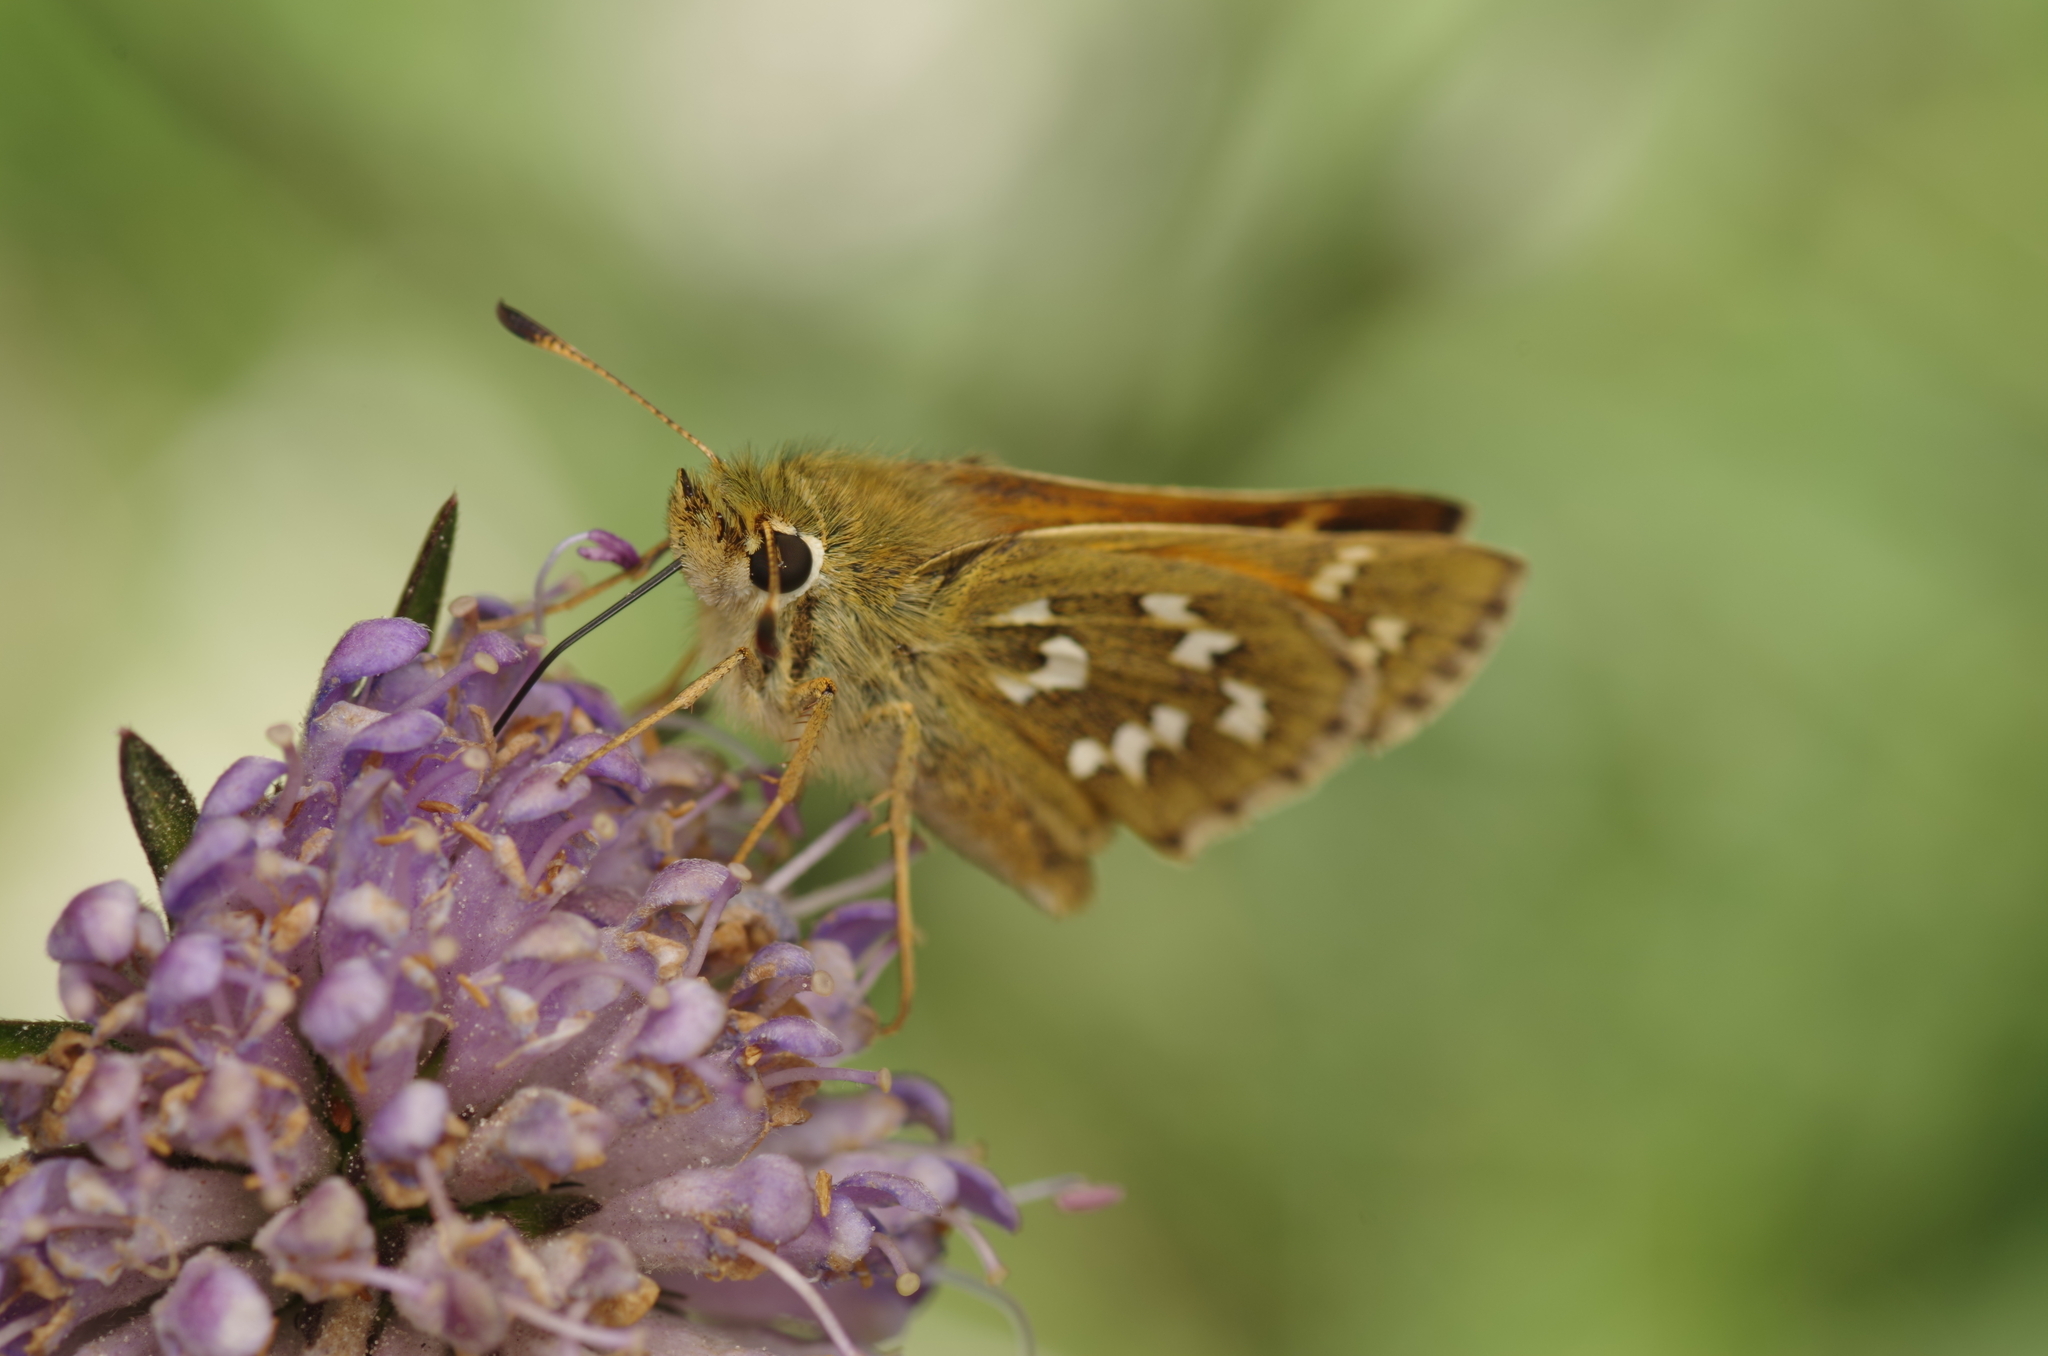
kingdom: Animalia
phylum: Arthropoda
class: Insecta
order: Lepidoptera
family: Hesperiidae
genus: Hesperia
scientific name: Hesperia comma
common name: Common branded skipper
